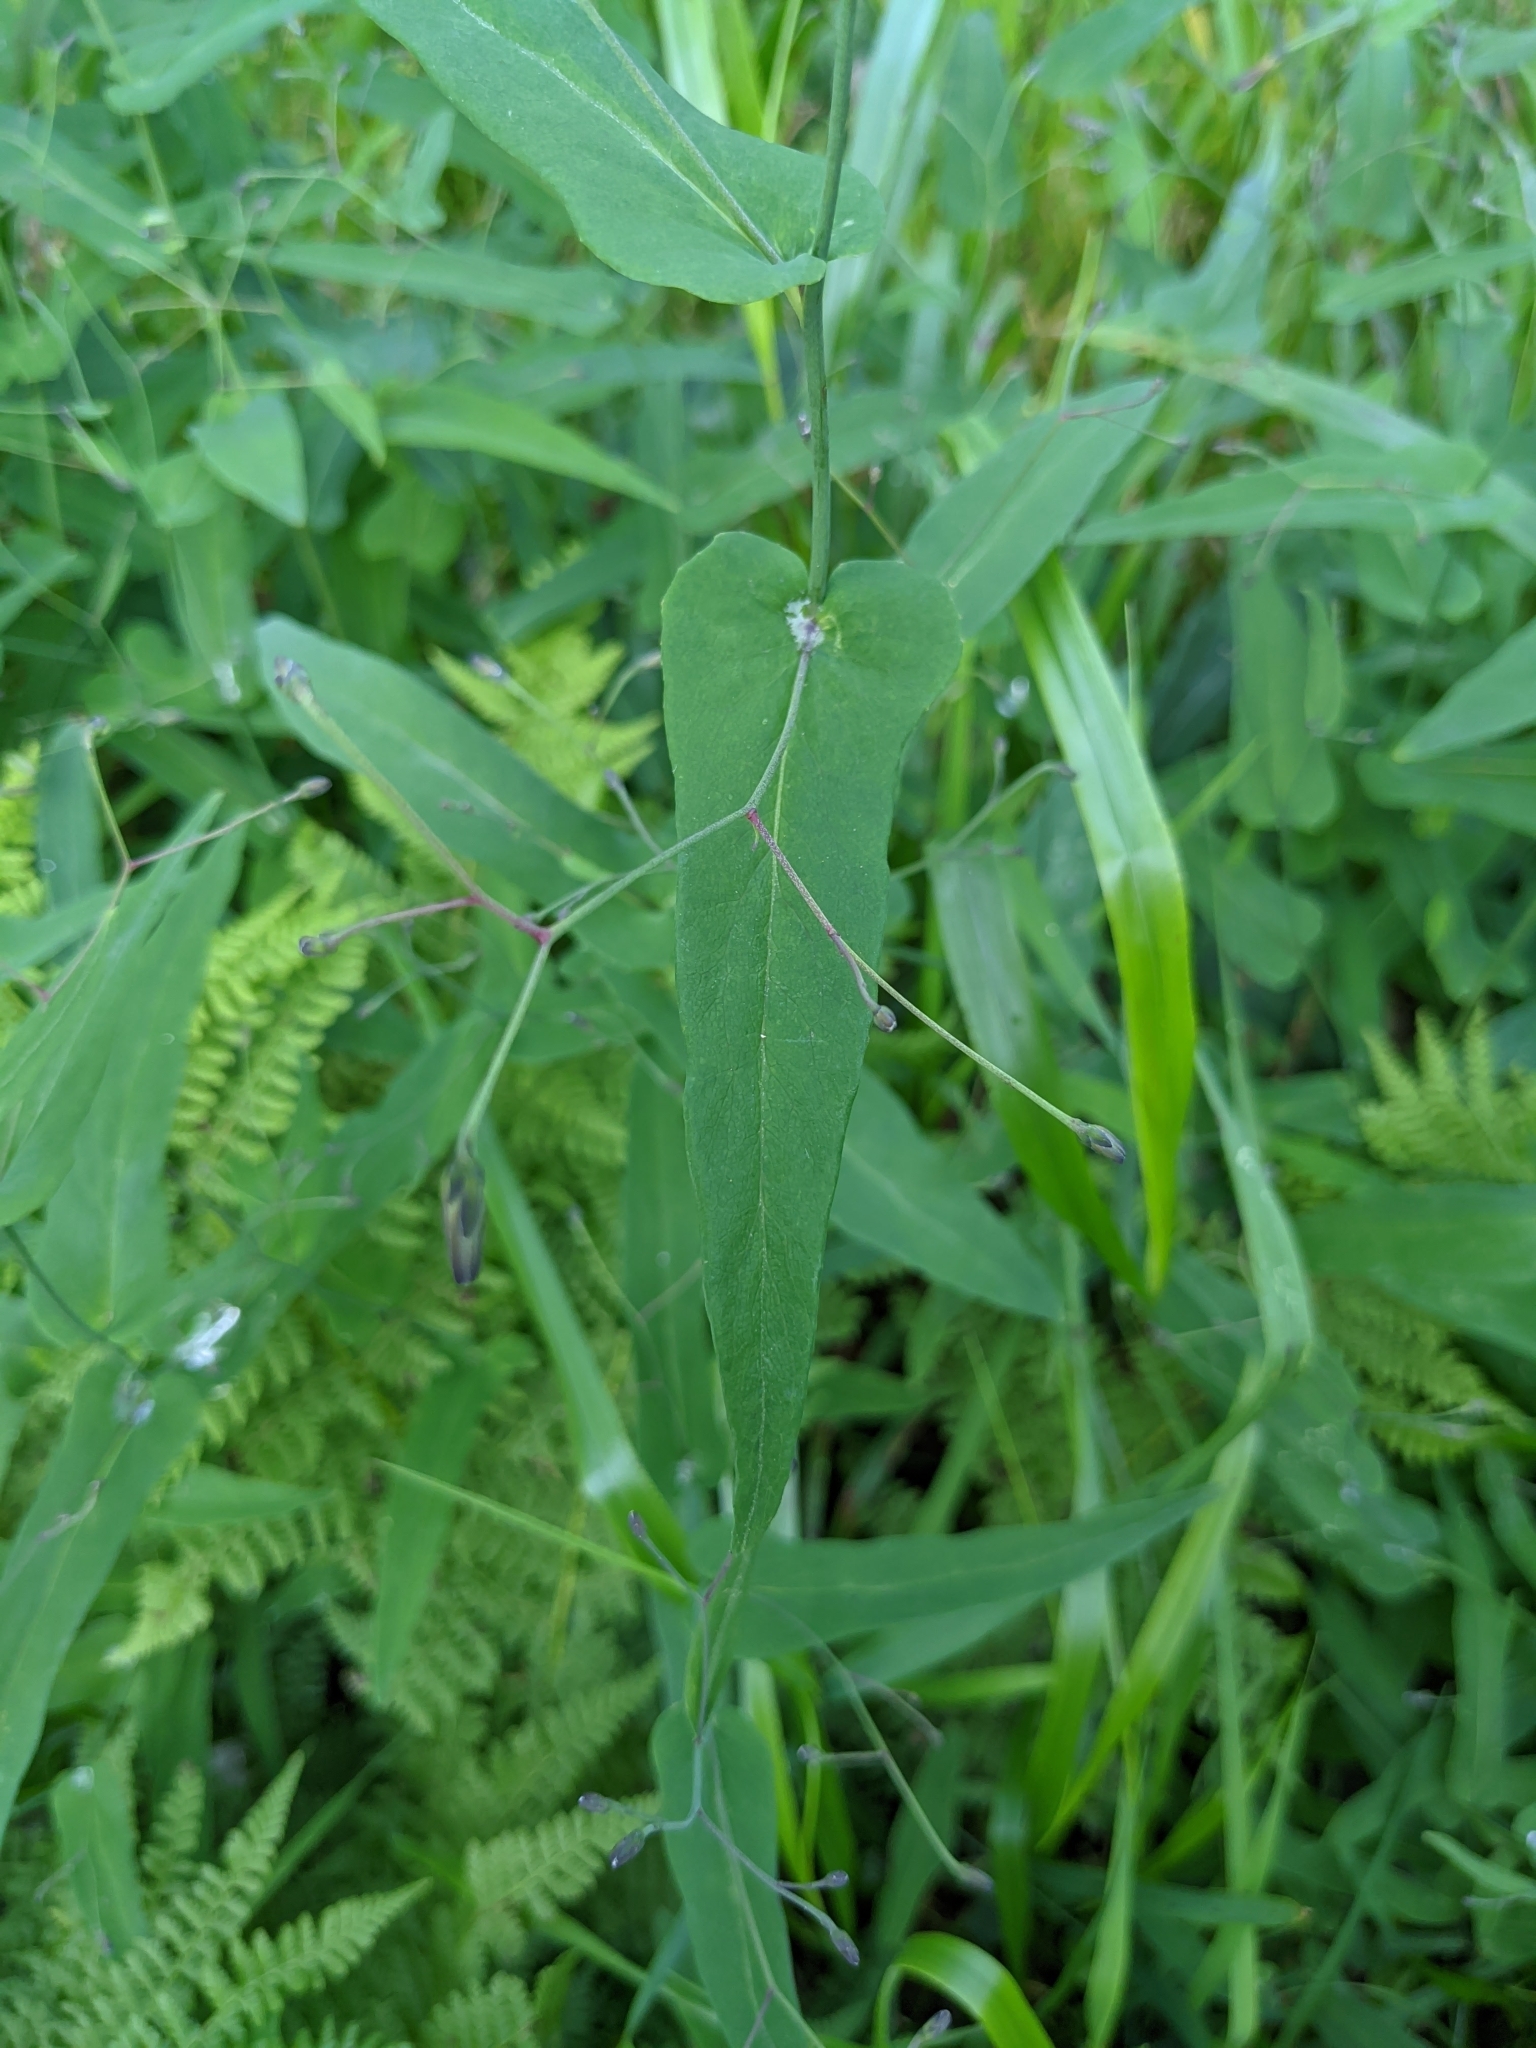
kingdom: Plantae
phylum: Tracheophyta
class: Magnoliopsida
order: Asterales
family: Asteraceae
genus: Prenanthes
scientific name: Prenanthes purpurea
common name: Purple lettuce
